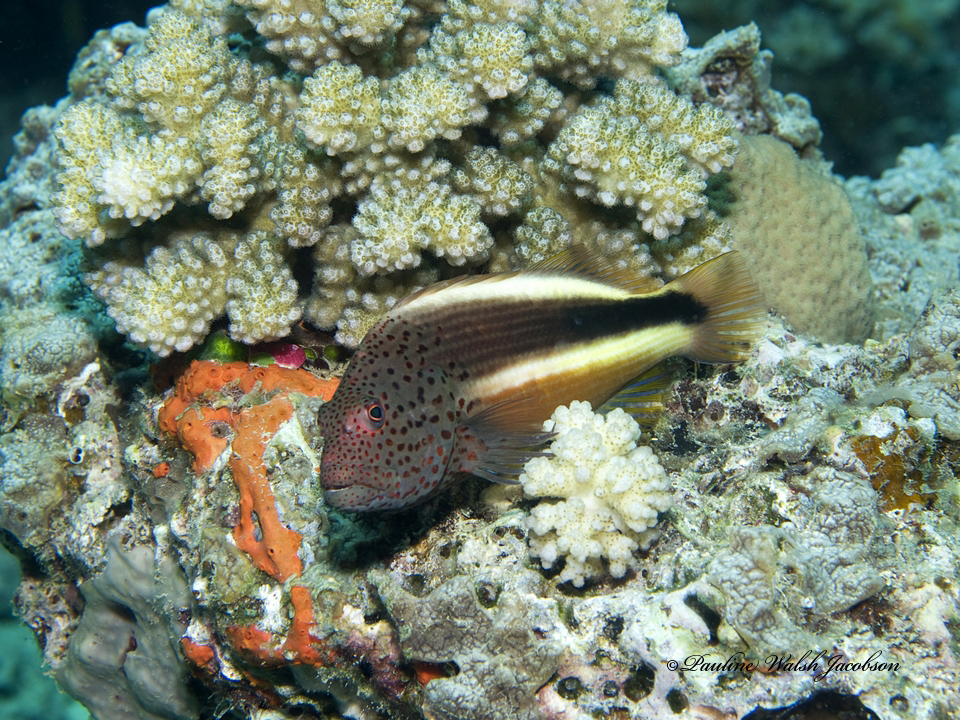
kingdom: Animalia
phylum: Chordata
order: Perciformes
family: Cirrhitidae
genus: Paracirrhites
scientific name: Paracirrhites forsteri
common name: Freckled hawkfish
